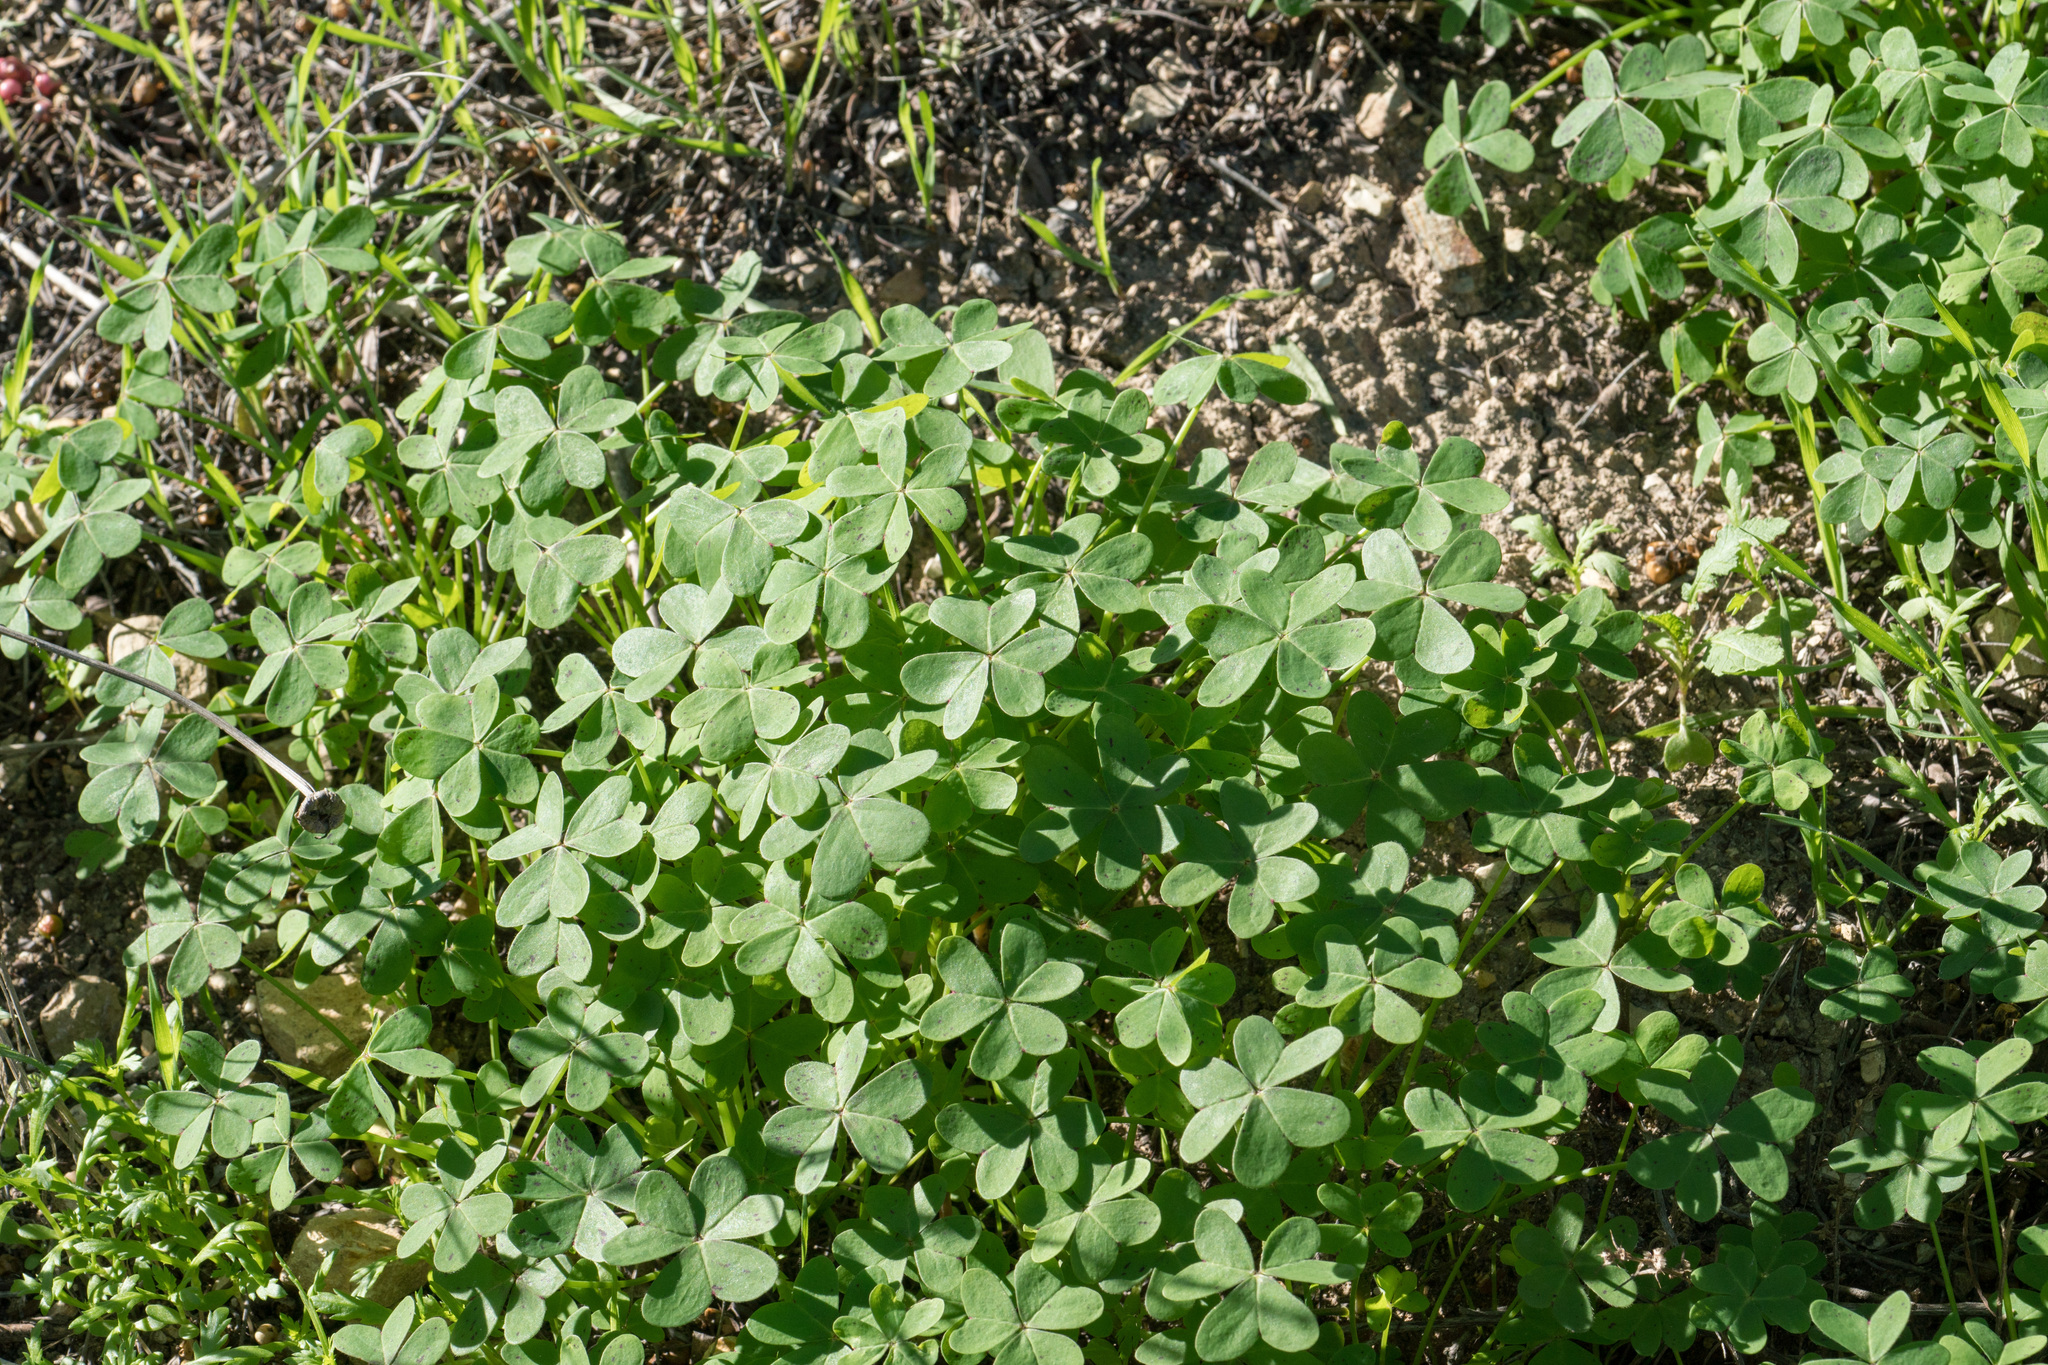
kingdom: Plantae
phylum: Tracheophyta
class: Magnoliopsida
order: Oxalidales
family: Oxalidaceae
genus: Oxalis
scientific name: Oxalis pes-caprae
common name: Bermuda-buttercup
